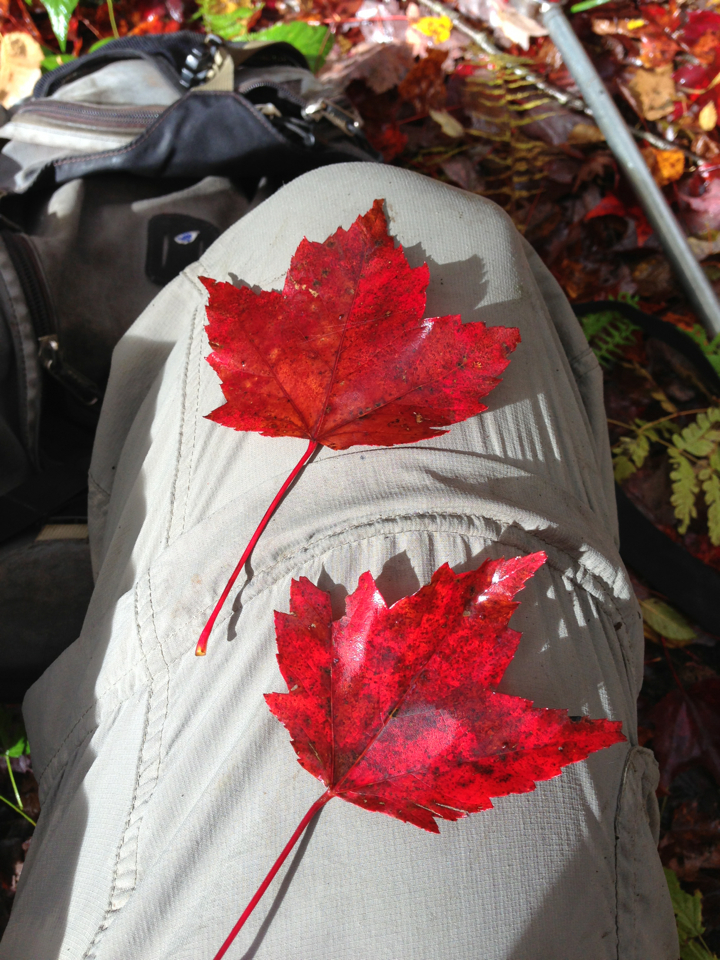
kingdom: Plantae
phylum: Tracheophyta
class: Magnoliopsida
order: Sapindales
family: Sapindaceae
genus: Acer
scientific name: Acer rubrum
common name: Red maple
